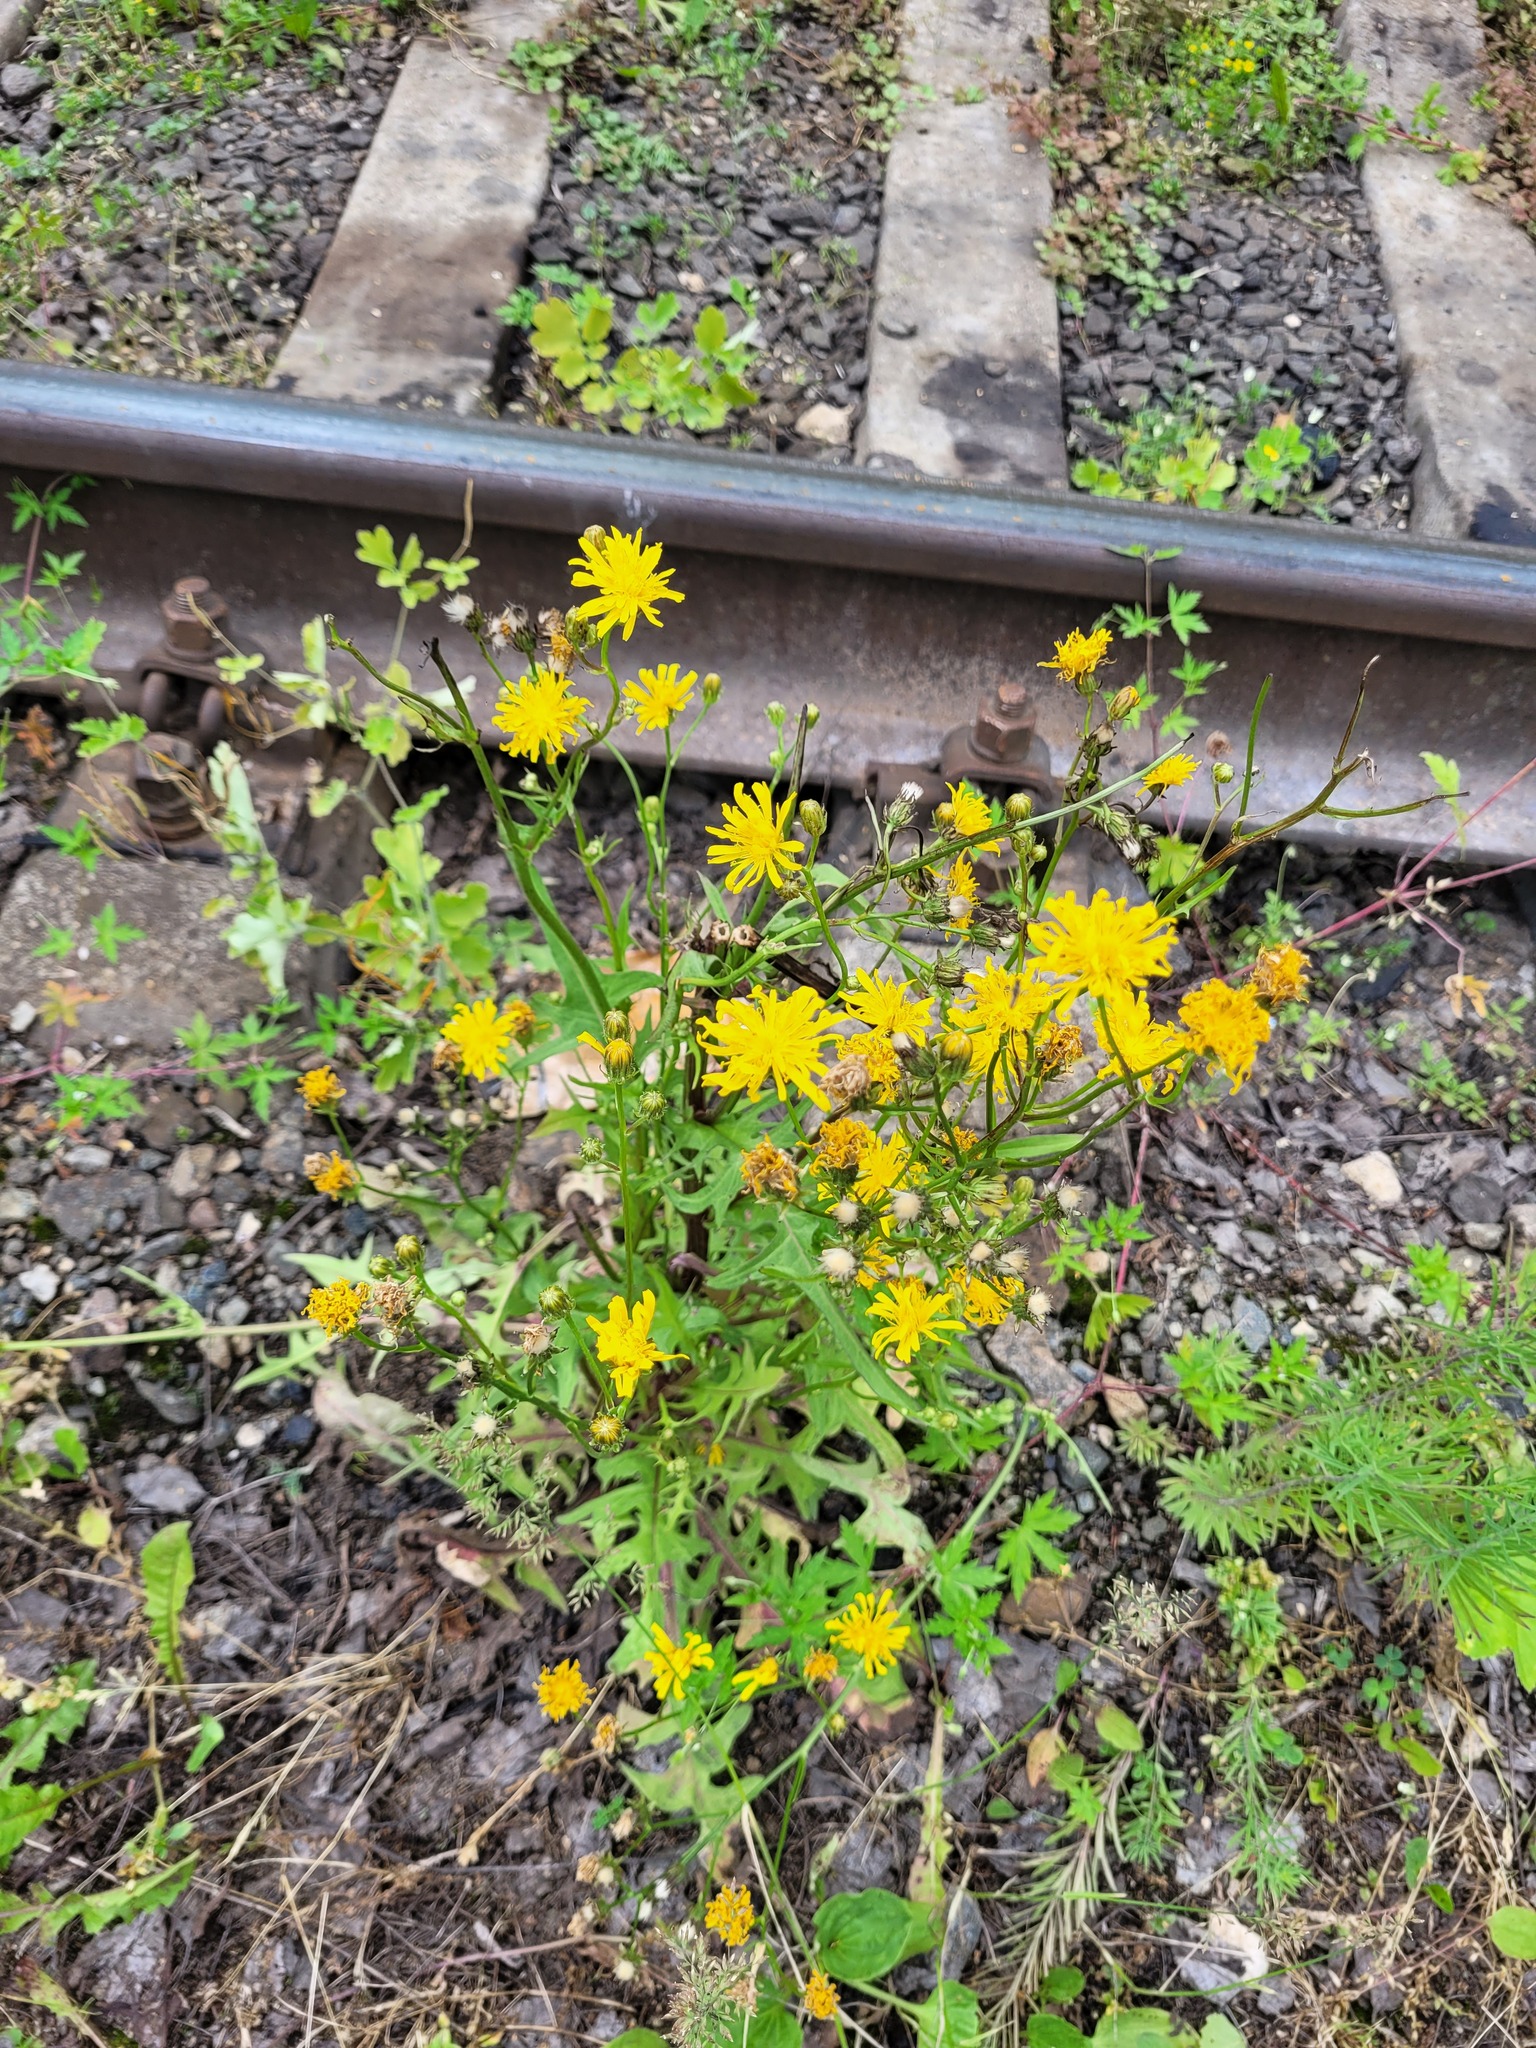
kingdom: Plantae
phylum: Tracheophyta
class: Magnoliopsida
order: Asterales
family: Asteraceae
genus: Crepis
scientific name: Crepis biennis
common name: Rough hawk's-beard
